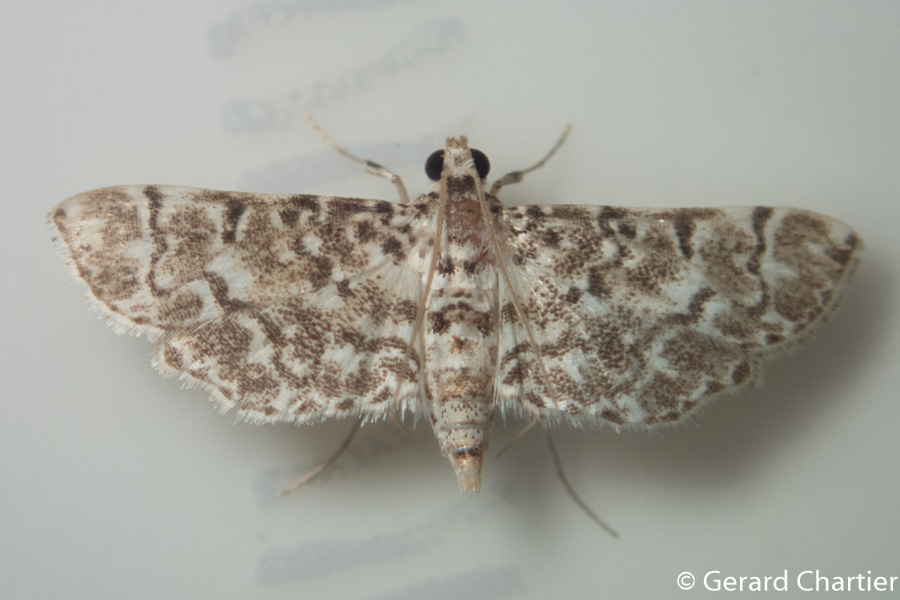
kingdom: Animalia
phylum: Arthropoda
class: Insecta
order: Lepidoptera
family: Crambidae
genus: Metoeca
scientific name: Metoeca foedalis
